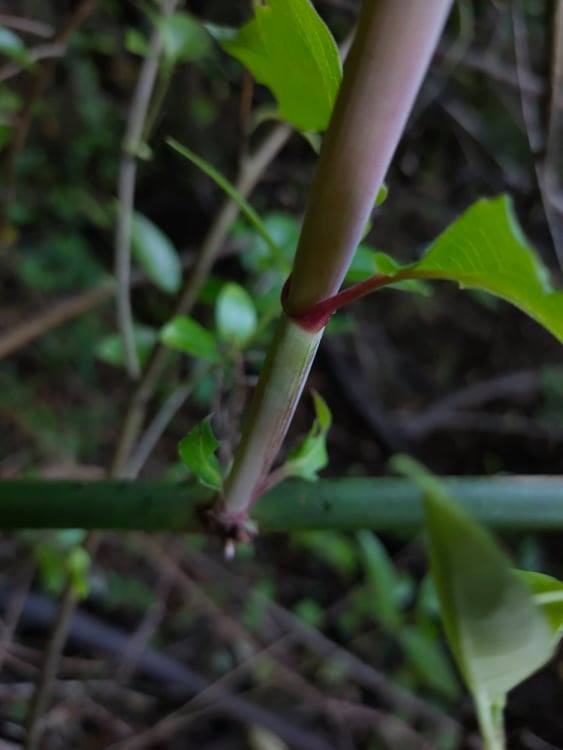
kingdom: Plantae
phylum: Tracheophyta
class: Magnoliopsida
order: Dipsacales
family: Caprifoliaceae
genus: Leycesteria
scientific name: Leycesteria formosa
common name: Himalayan honeysuckle
